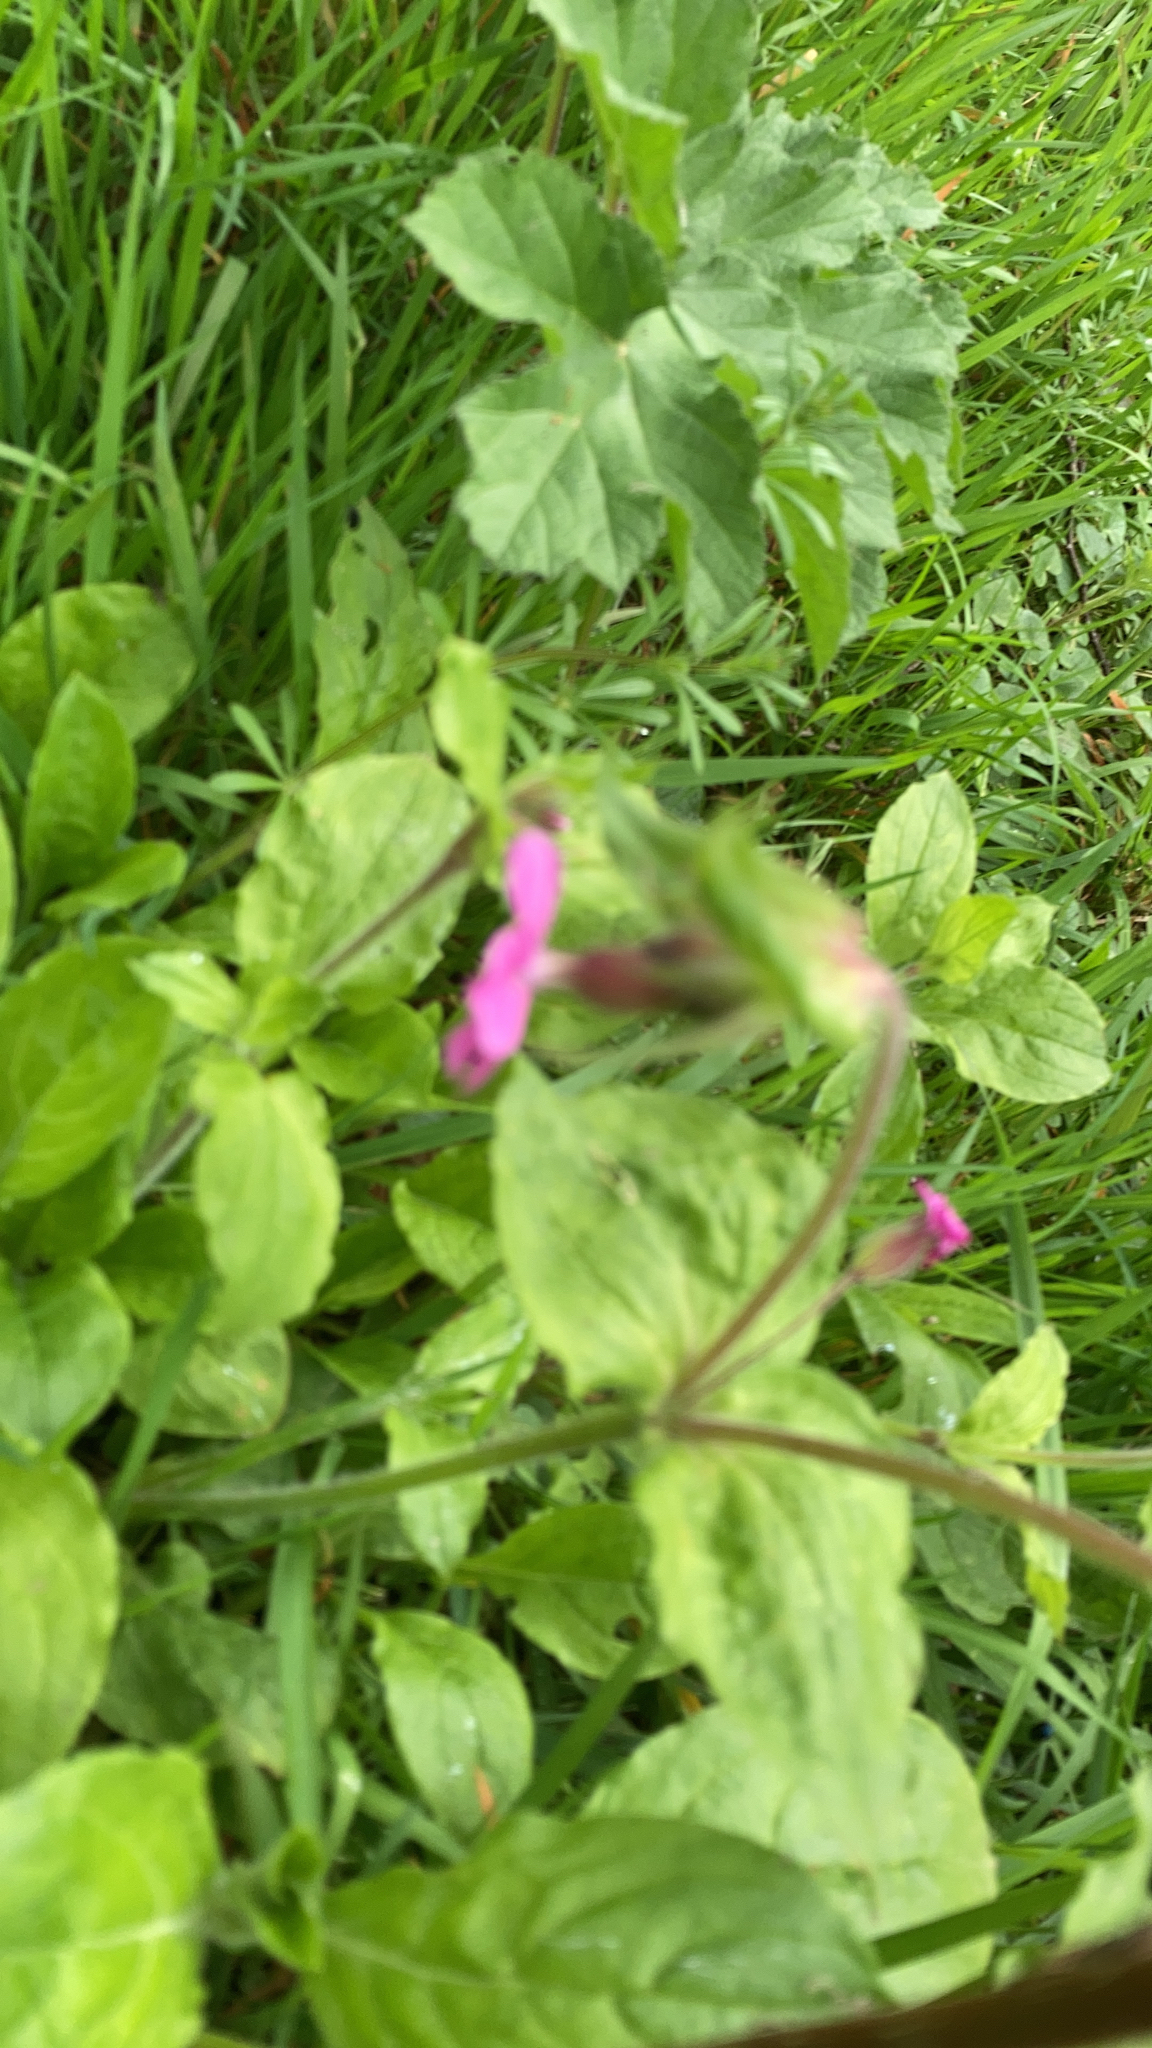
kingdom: Plantae
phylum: Tracheophyta
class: Magnoliopsida
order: Caryophyllales
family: Caryophyllaceae
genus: Silene
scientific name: Silene dioica
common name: Red campion
